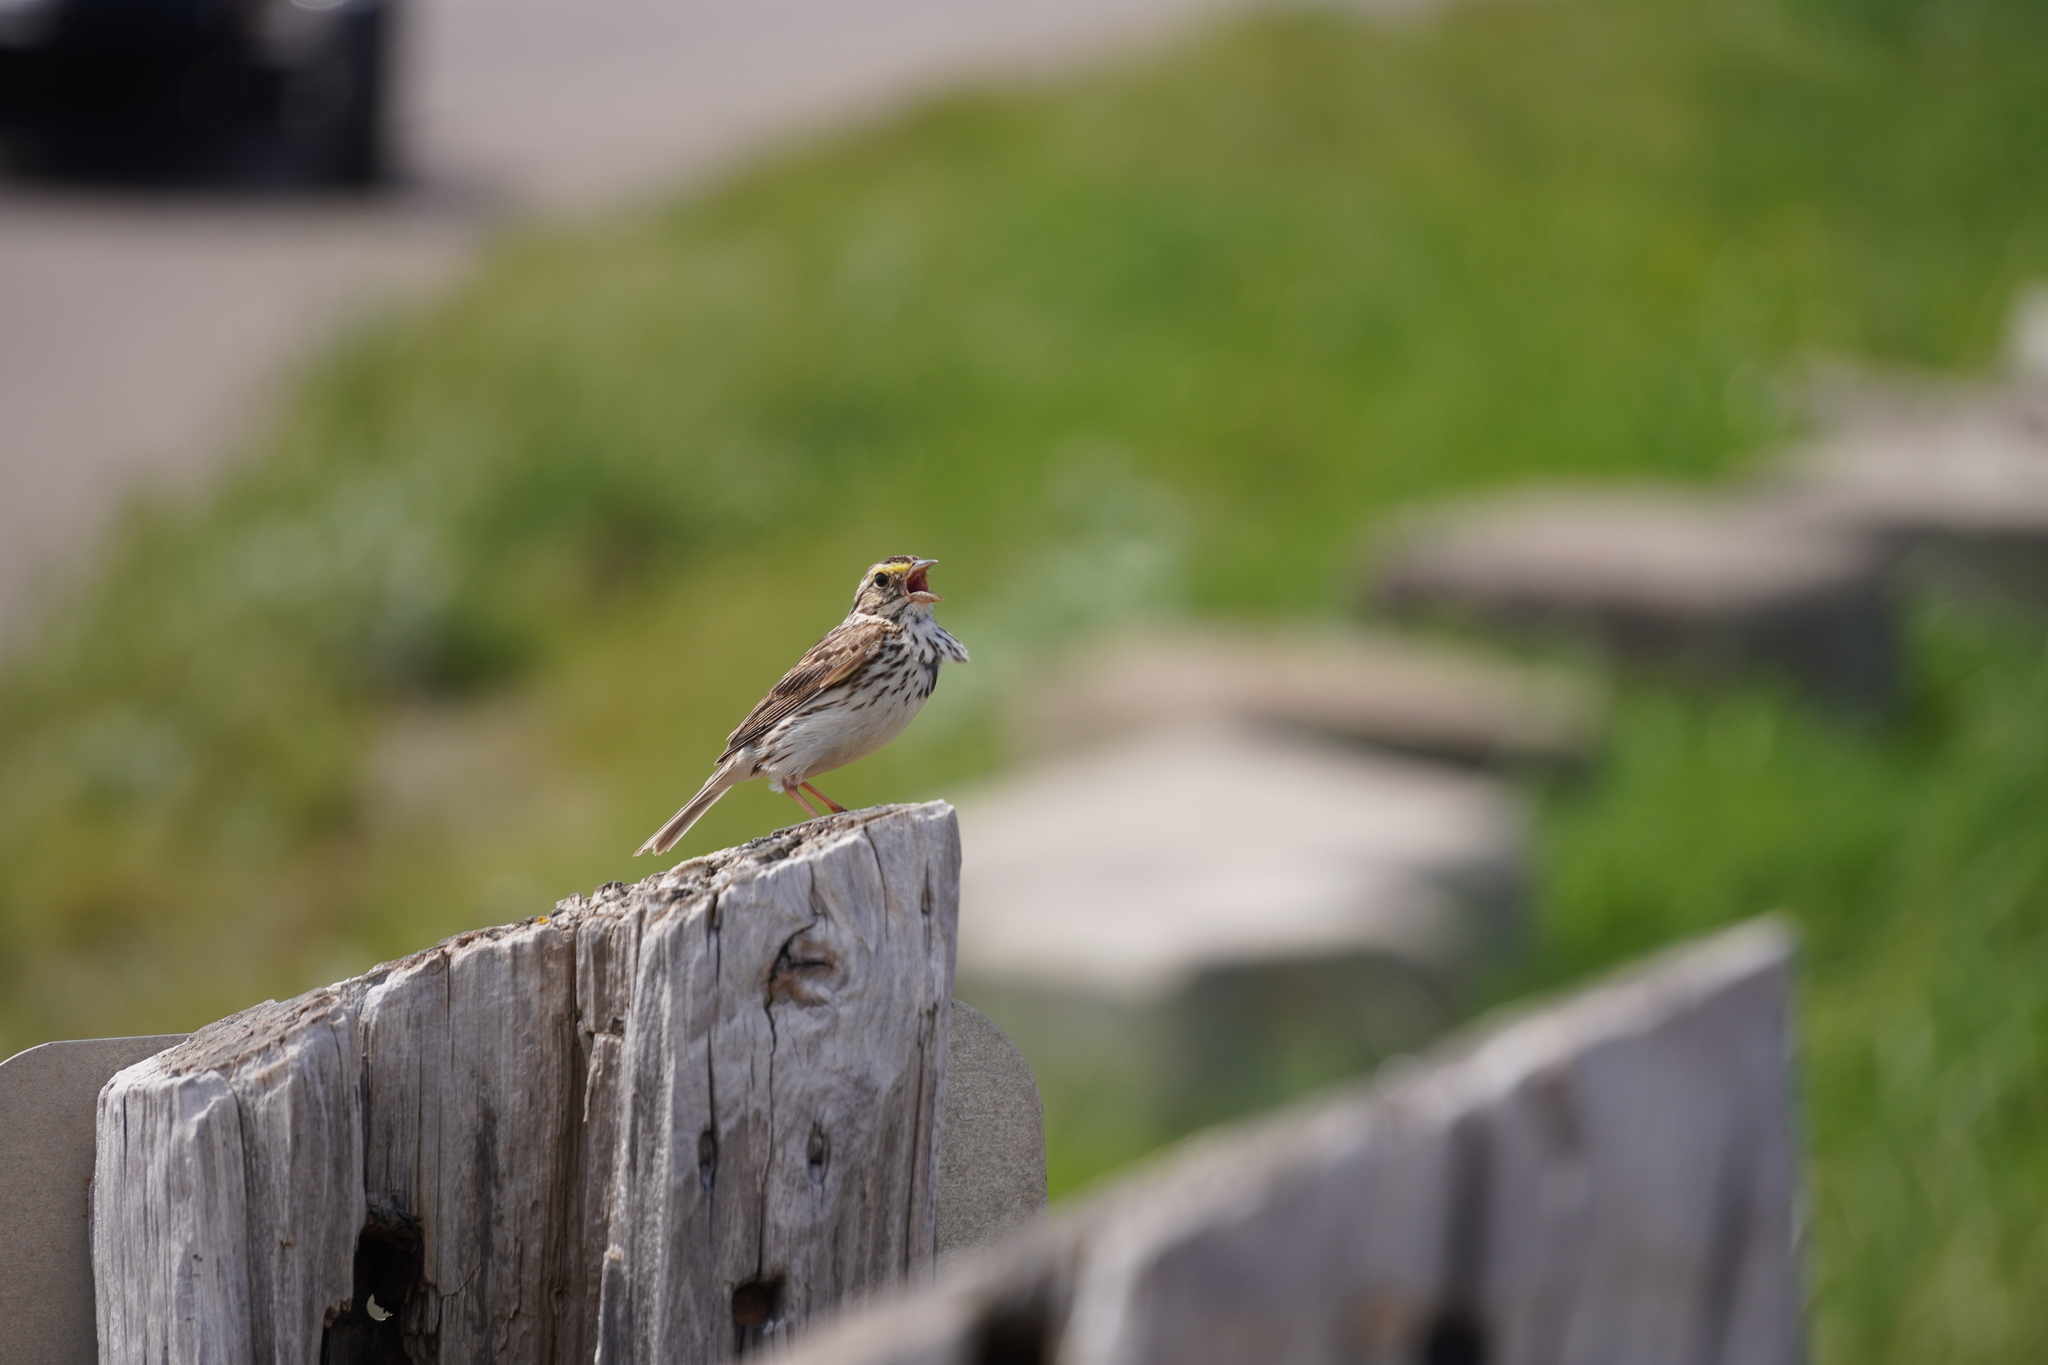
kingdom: Animalia
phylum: Chordata
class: Aves
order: Passeriformes
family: Passerellidae
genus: Passerculus
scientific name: Passerculus sandwichensis
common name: Savannah sparrow
